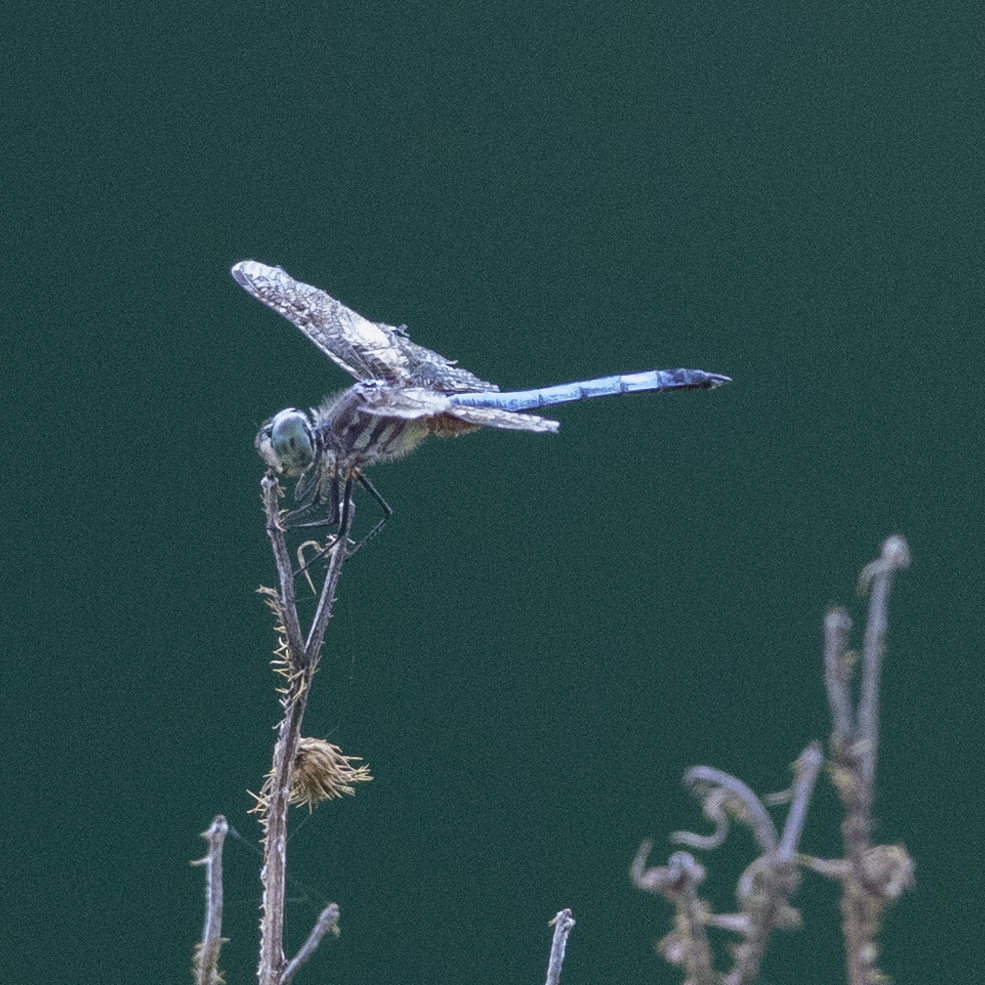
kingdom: Animalia
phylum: Arthropoda
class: Insecta
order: Odonata
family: Libellulidae
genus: Pachydiplax
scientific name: Pachydiplax longipennis
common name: Blue dasher
